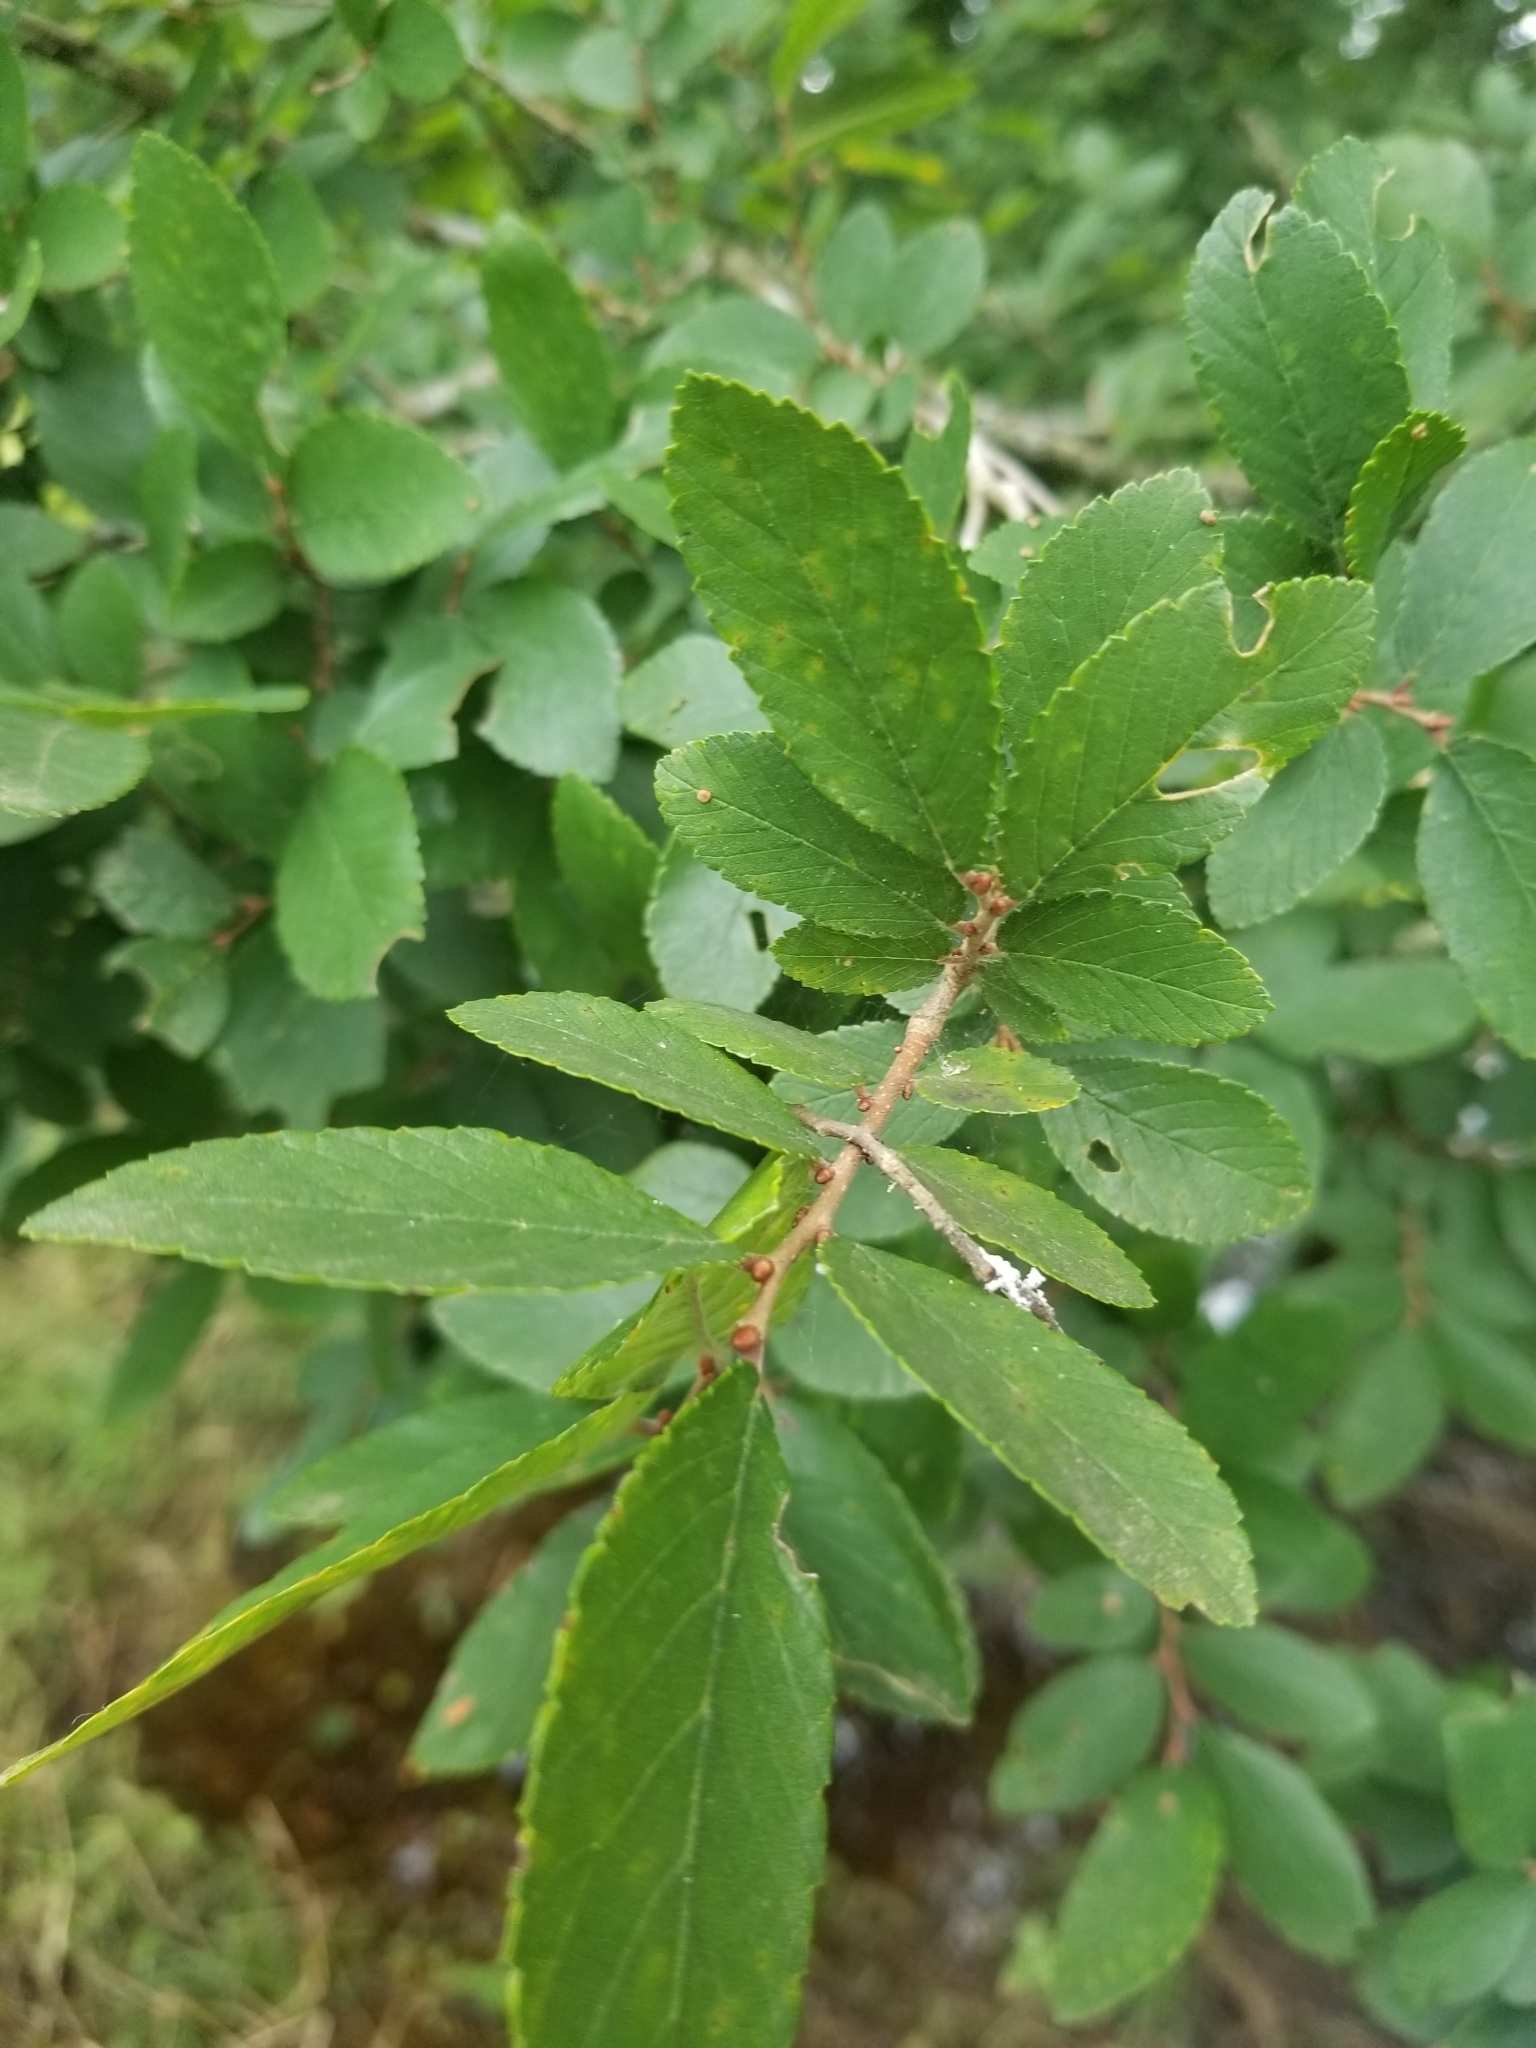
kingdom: Plantae
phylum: Tracheophyta
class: Magnoliopsida
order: Rosales
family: Ulmaceae
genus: Ulmus
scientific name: Ulmus crassifolia
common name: Basket elm
